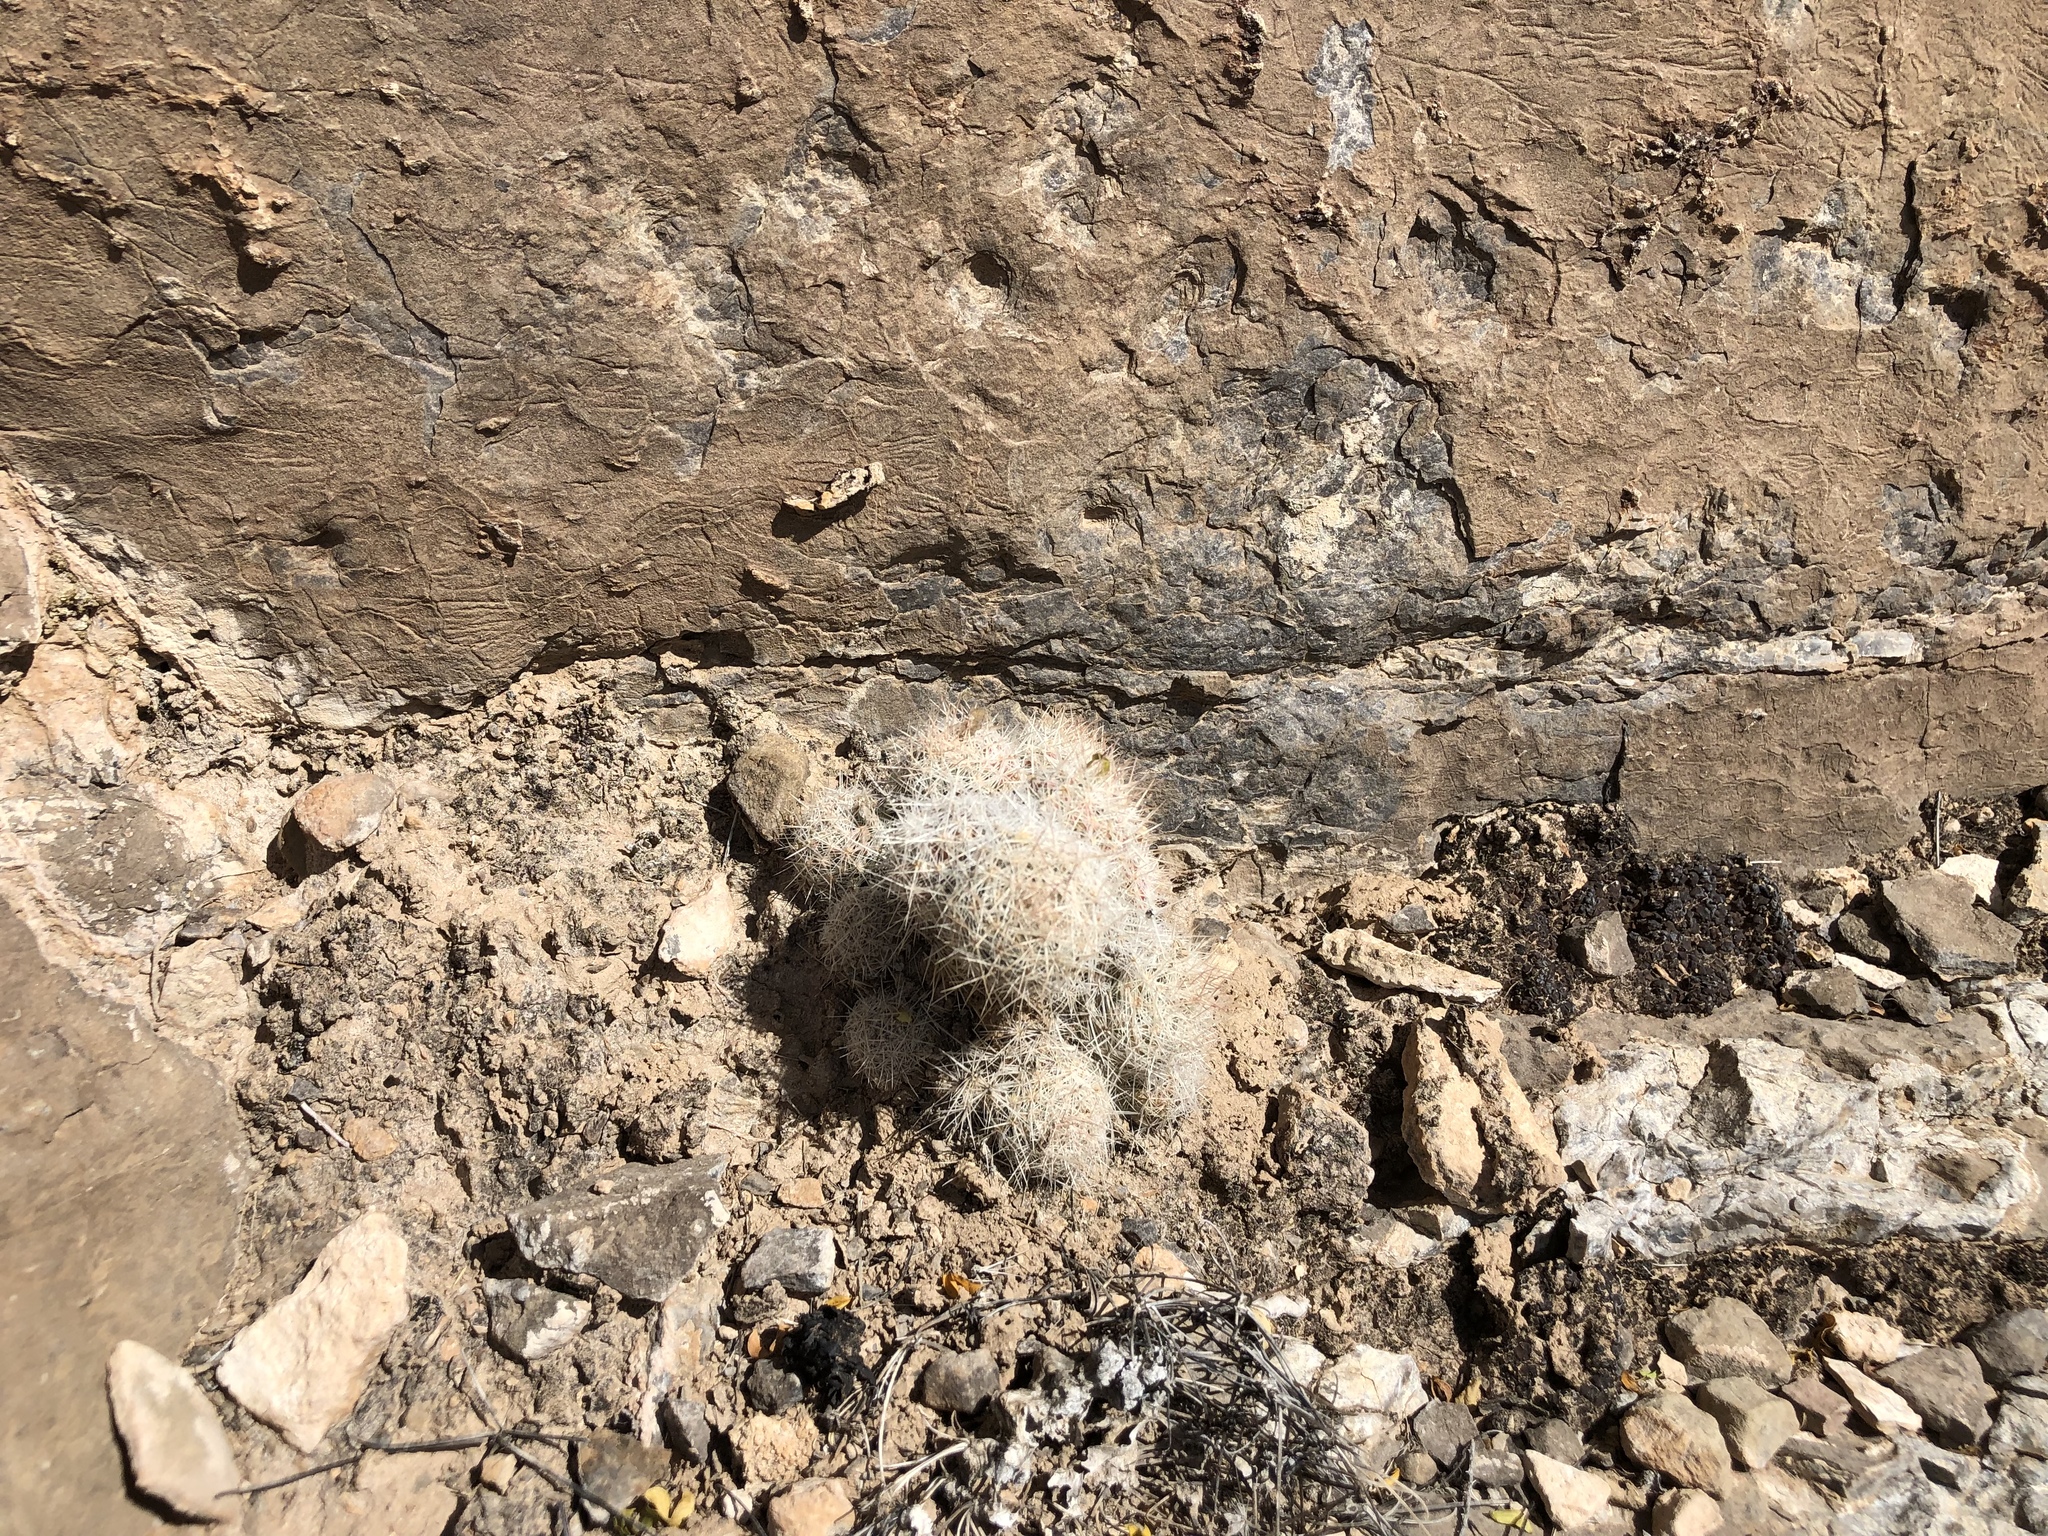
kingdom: Plantae
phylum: Tracheophyta
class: Magnoliopsida
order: Caryophyllales
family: Cactaceae
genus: Pelecyphora
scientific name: Pelecyphora tuberculosa
